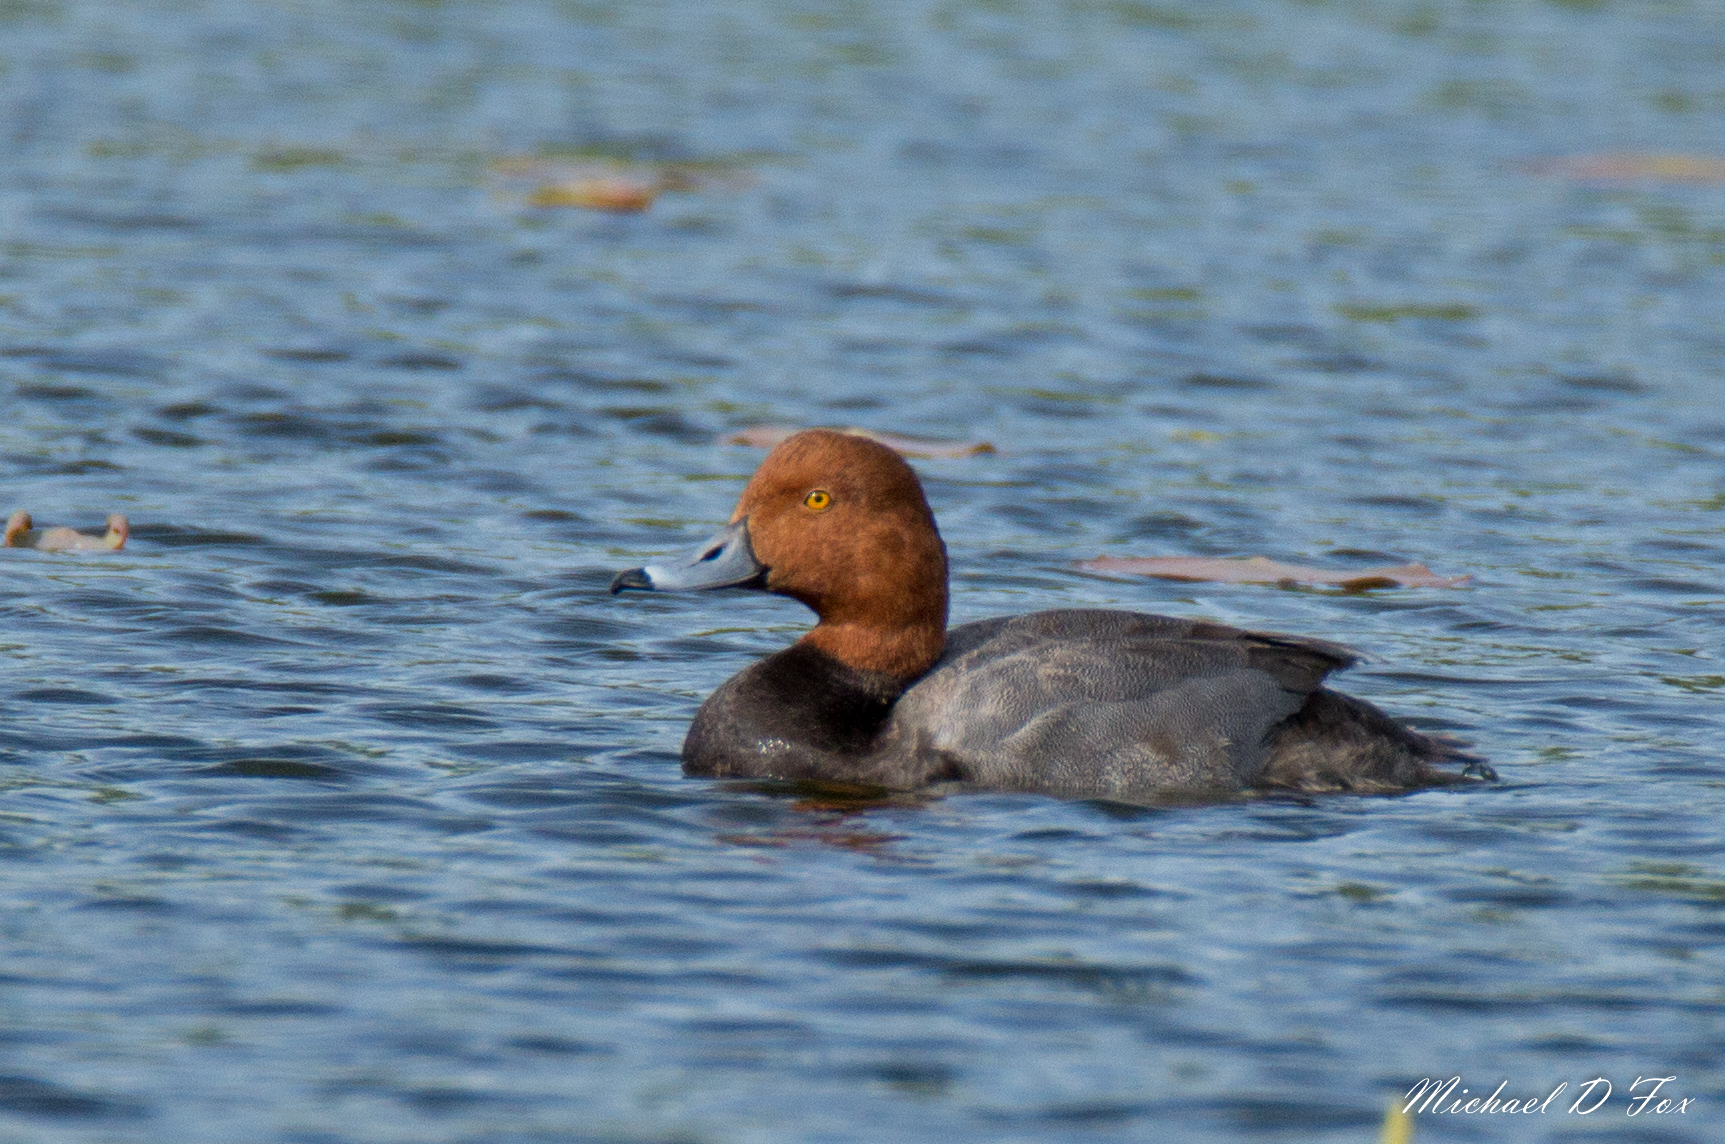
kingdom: Animalia
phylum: Chordata
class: Aves
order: Anseriformes
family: Anatidae
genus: Aythya
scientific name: Aythya americana
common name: Redhead
